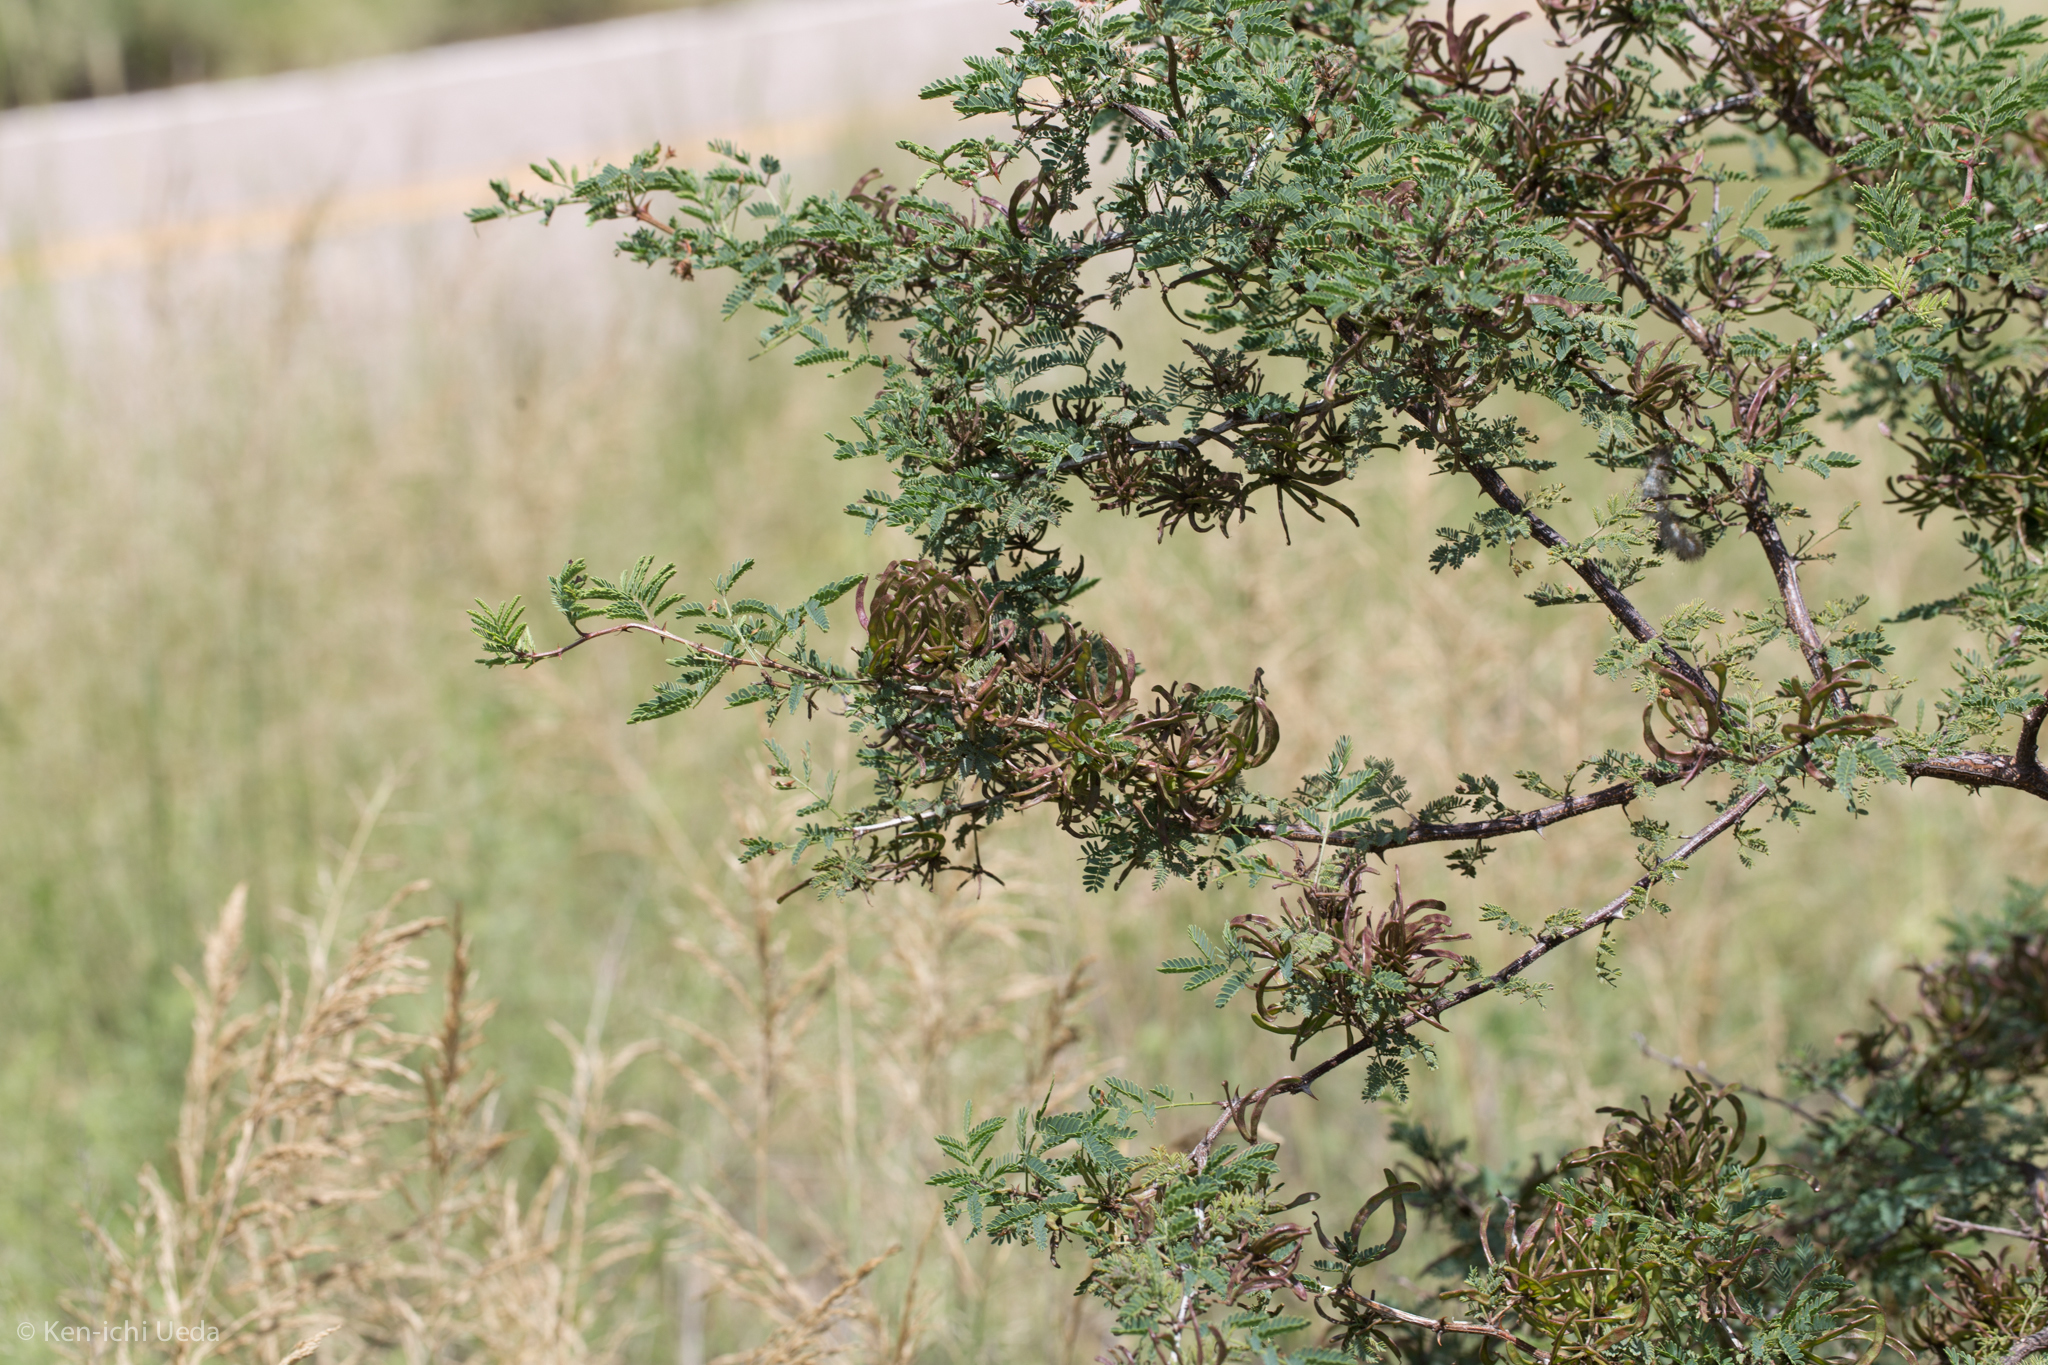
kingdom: Plantae
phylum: Tracheophyta
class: Magnoliopsida
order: Fabales
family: Fabaceae
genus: Mimosa
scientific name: Mimosa biuncifera
